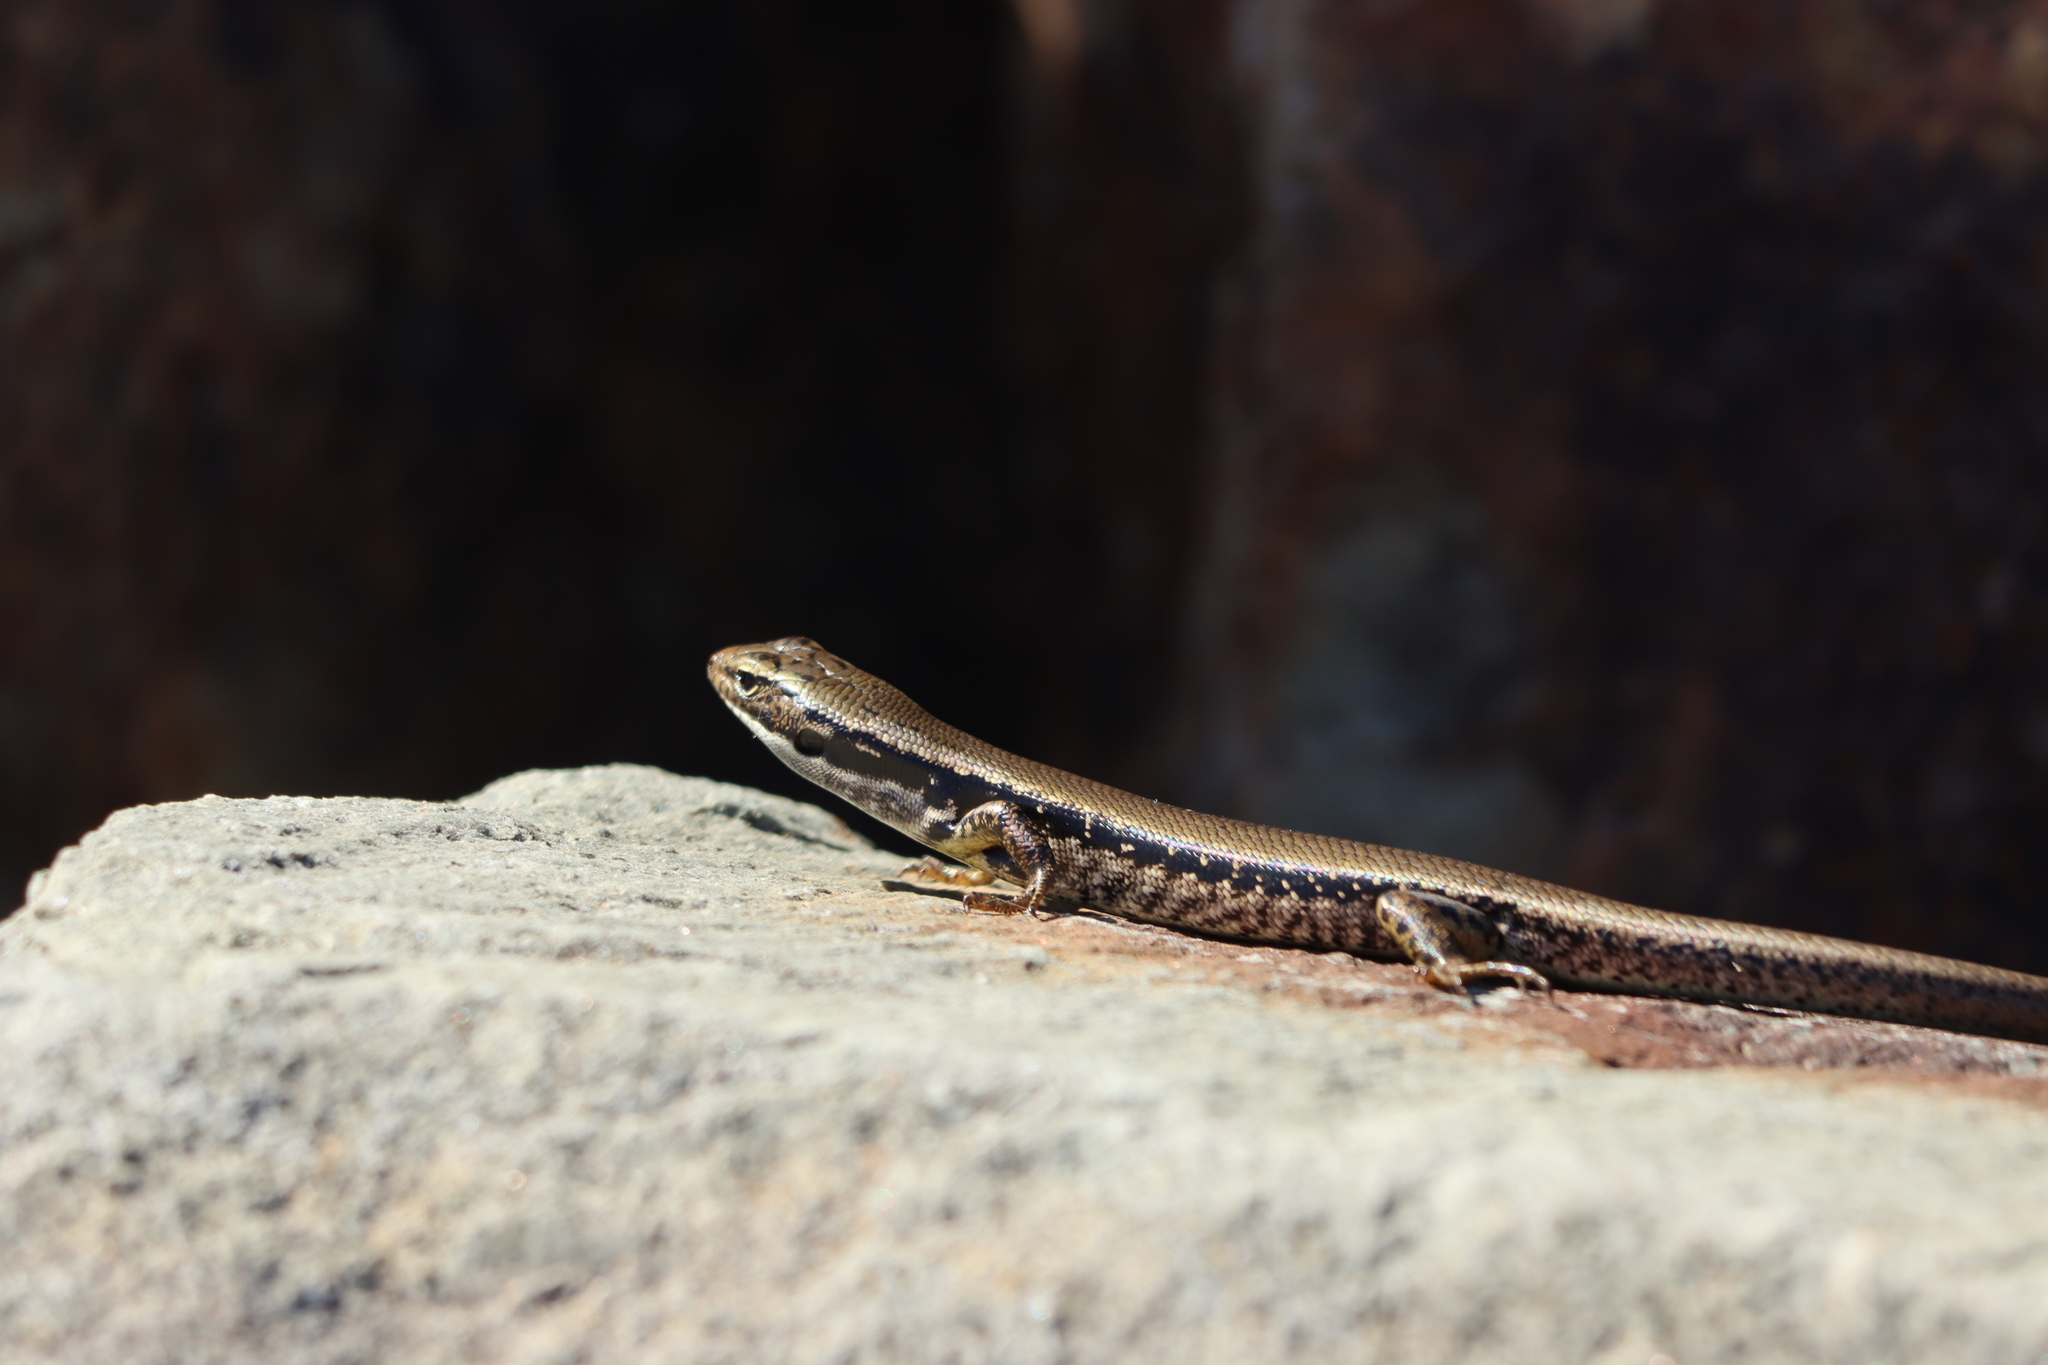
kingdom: Animalia
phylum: Chordata
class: Squamata
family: Scincidae
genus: Eulamprus
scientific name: Eulamprus heatwolei
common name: Warm-temperate water-skink
